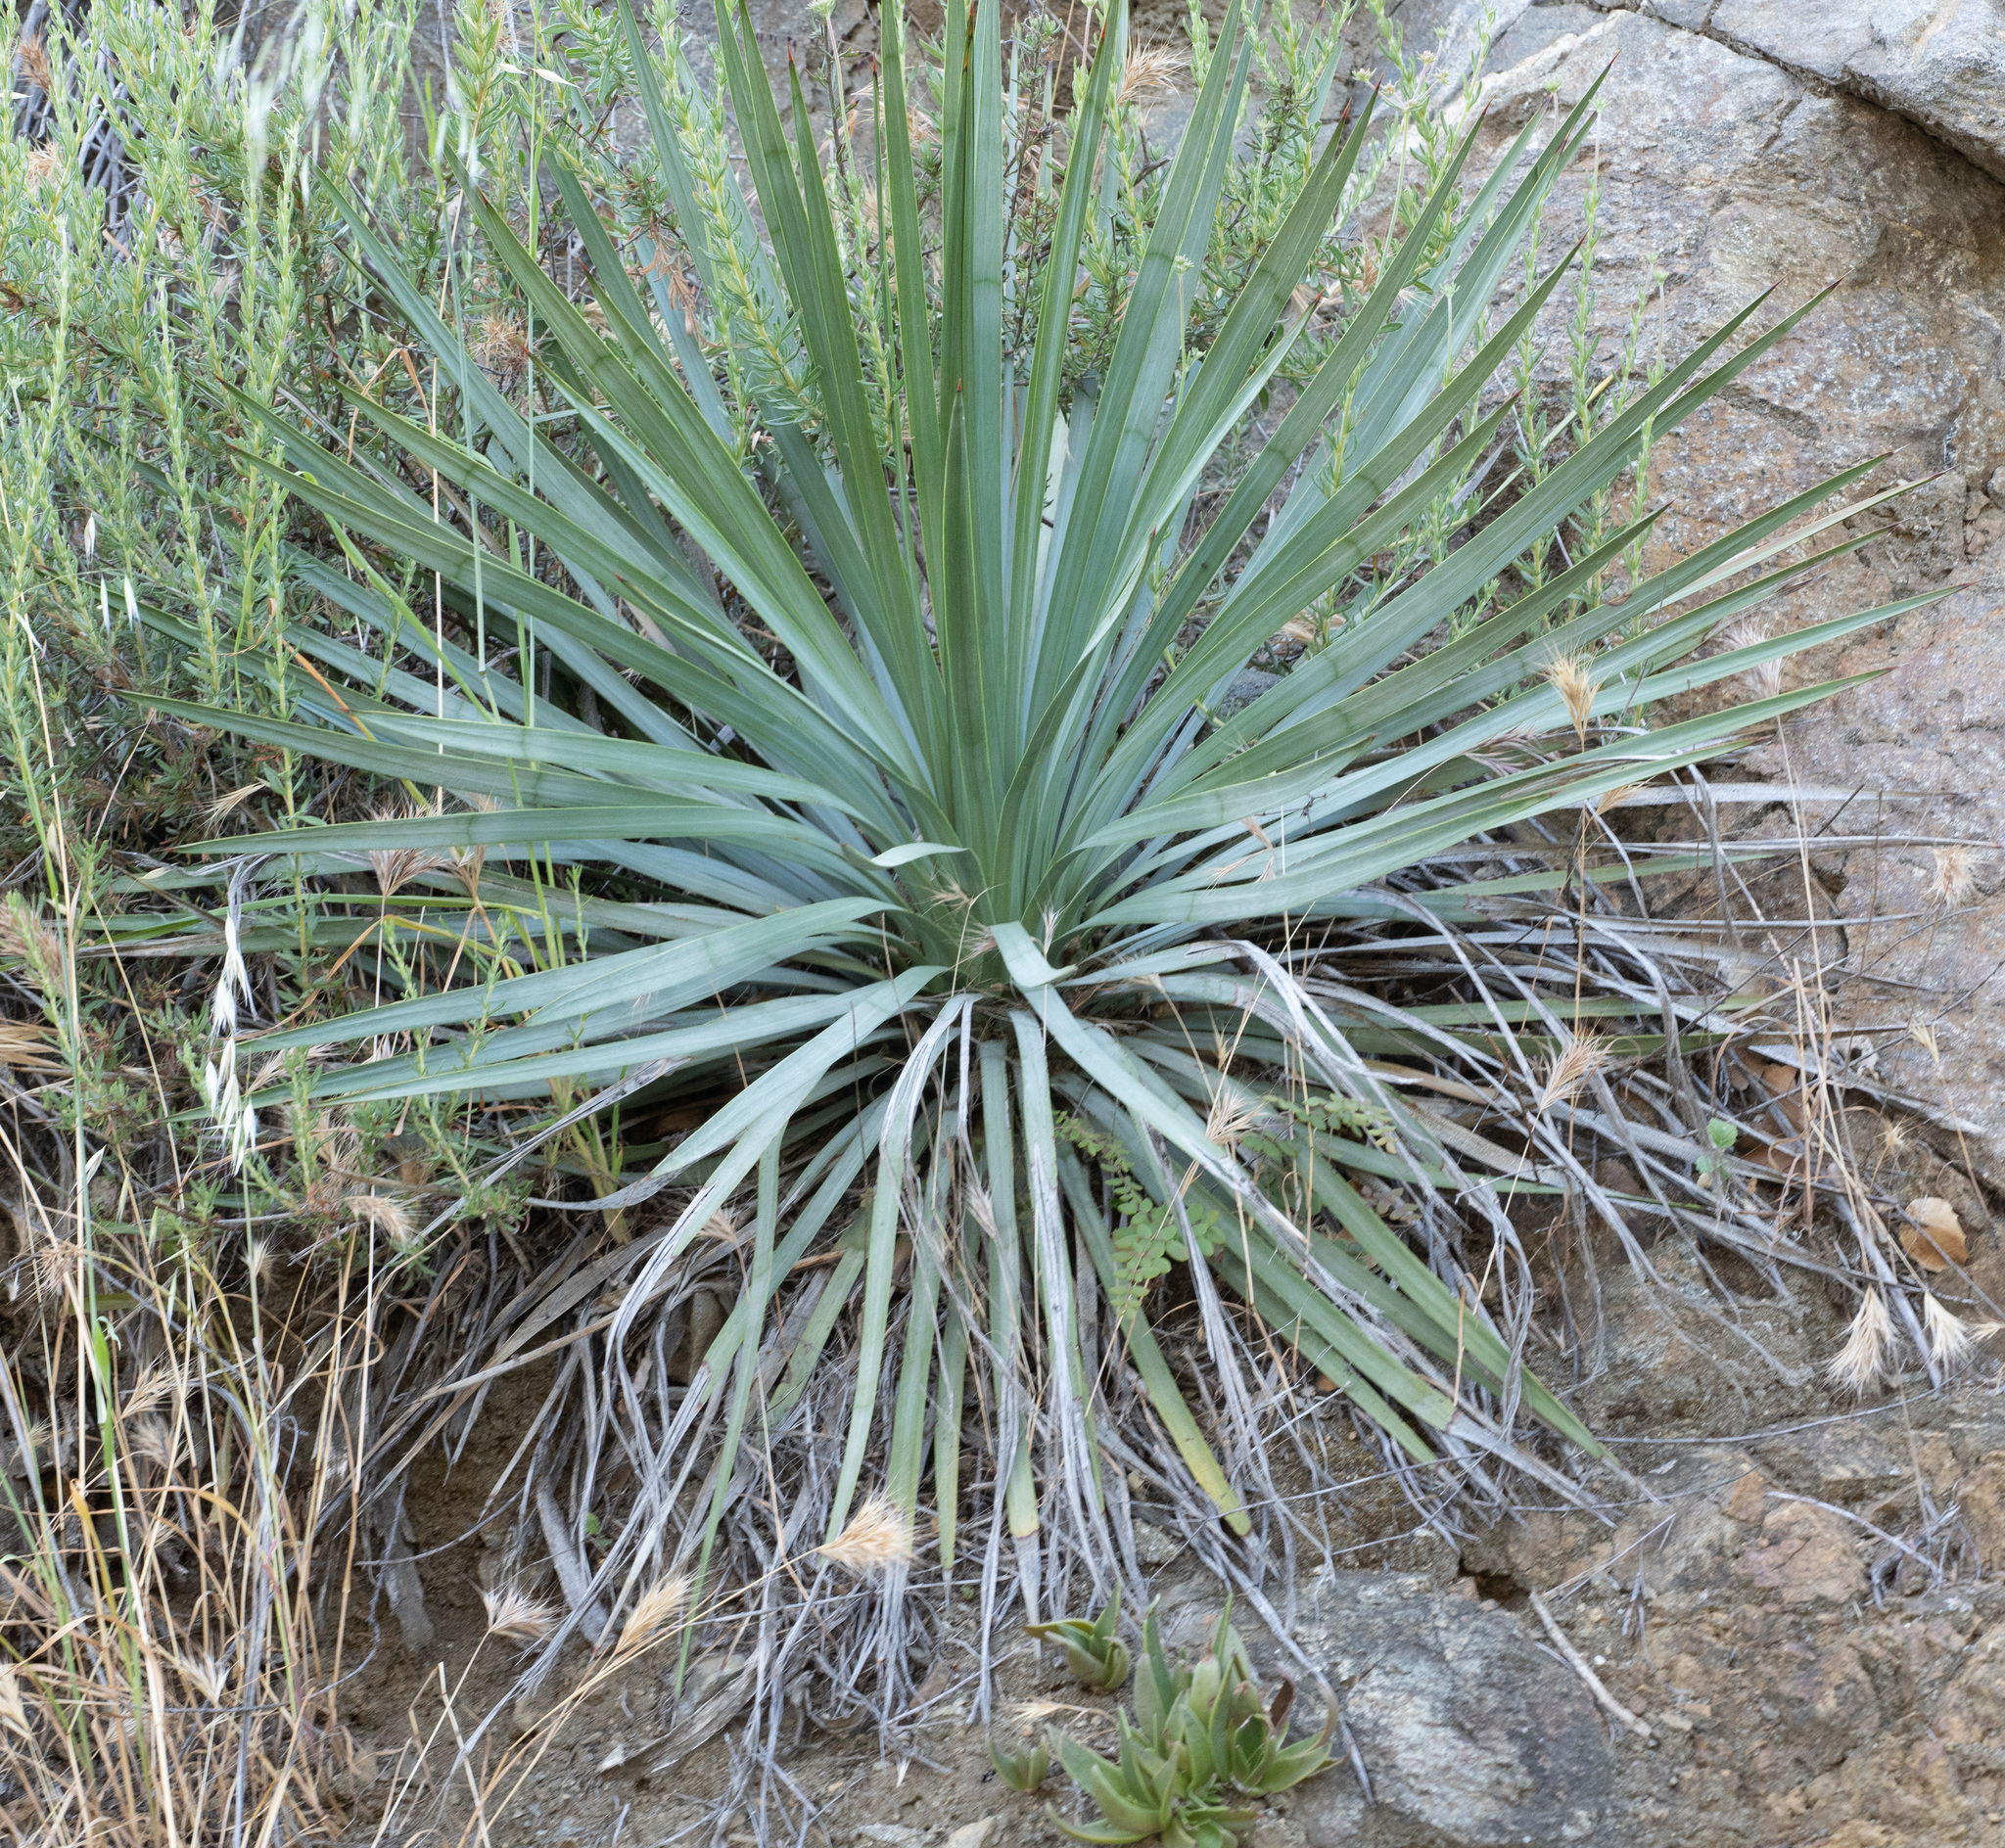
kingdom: Plantae
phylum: Tracheophyta
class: Liliopsida
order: Asparagales
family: Asparagaceae
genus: Hesperoyucca
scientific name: Hesperoyucca whipplei
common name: Our lord's-candle
